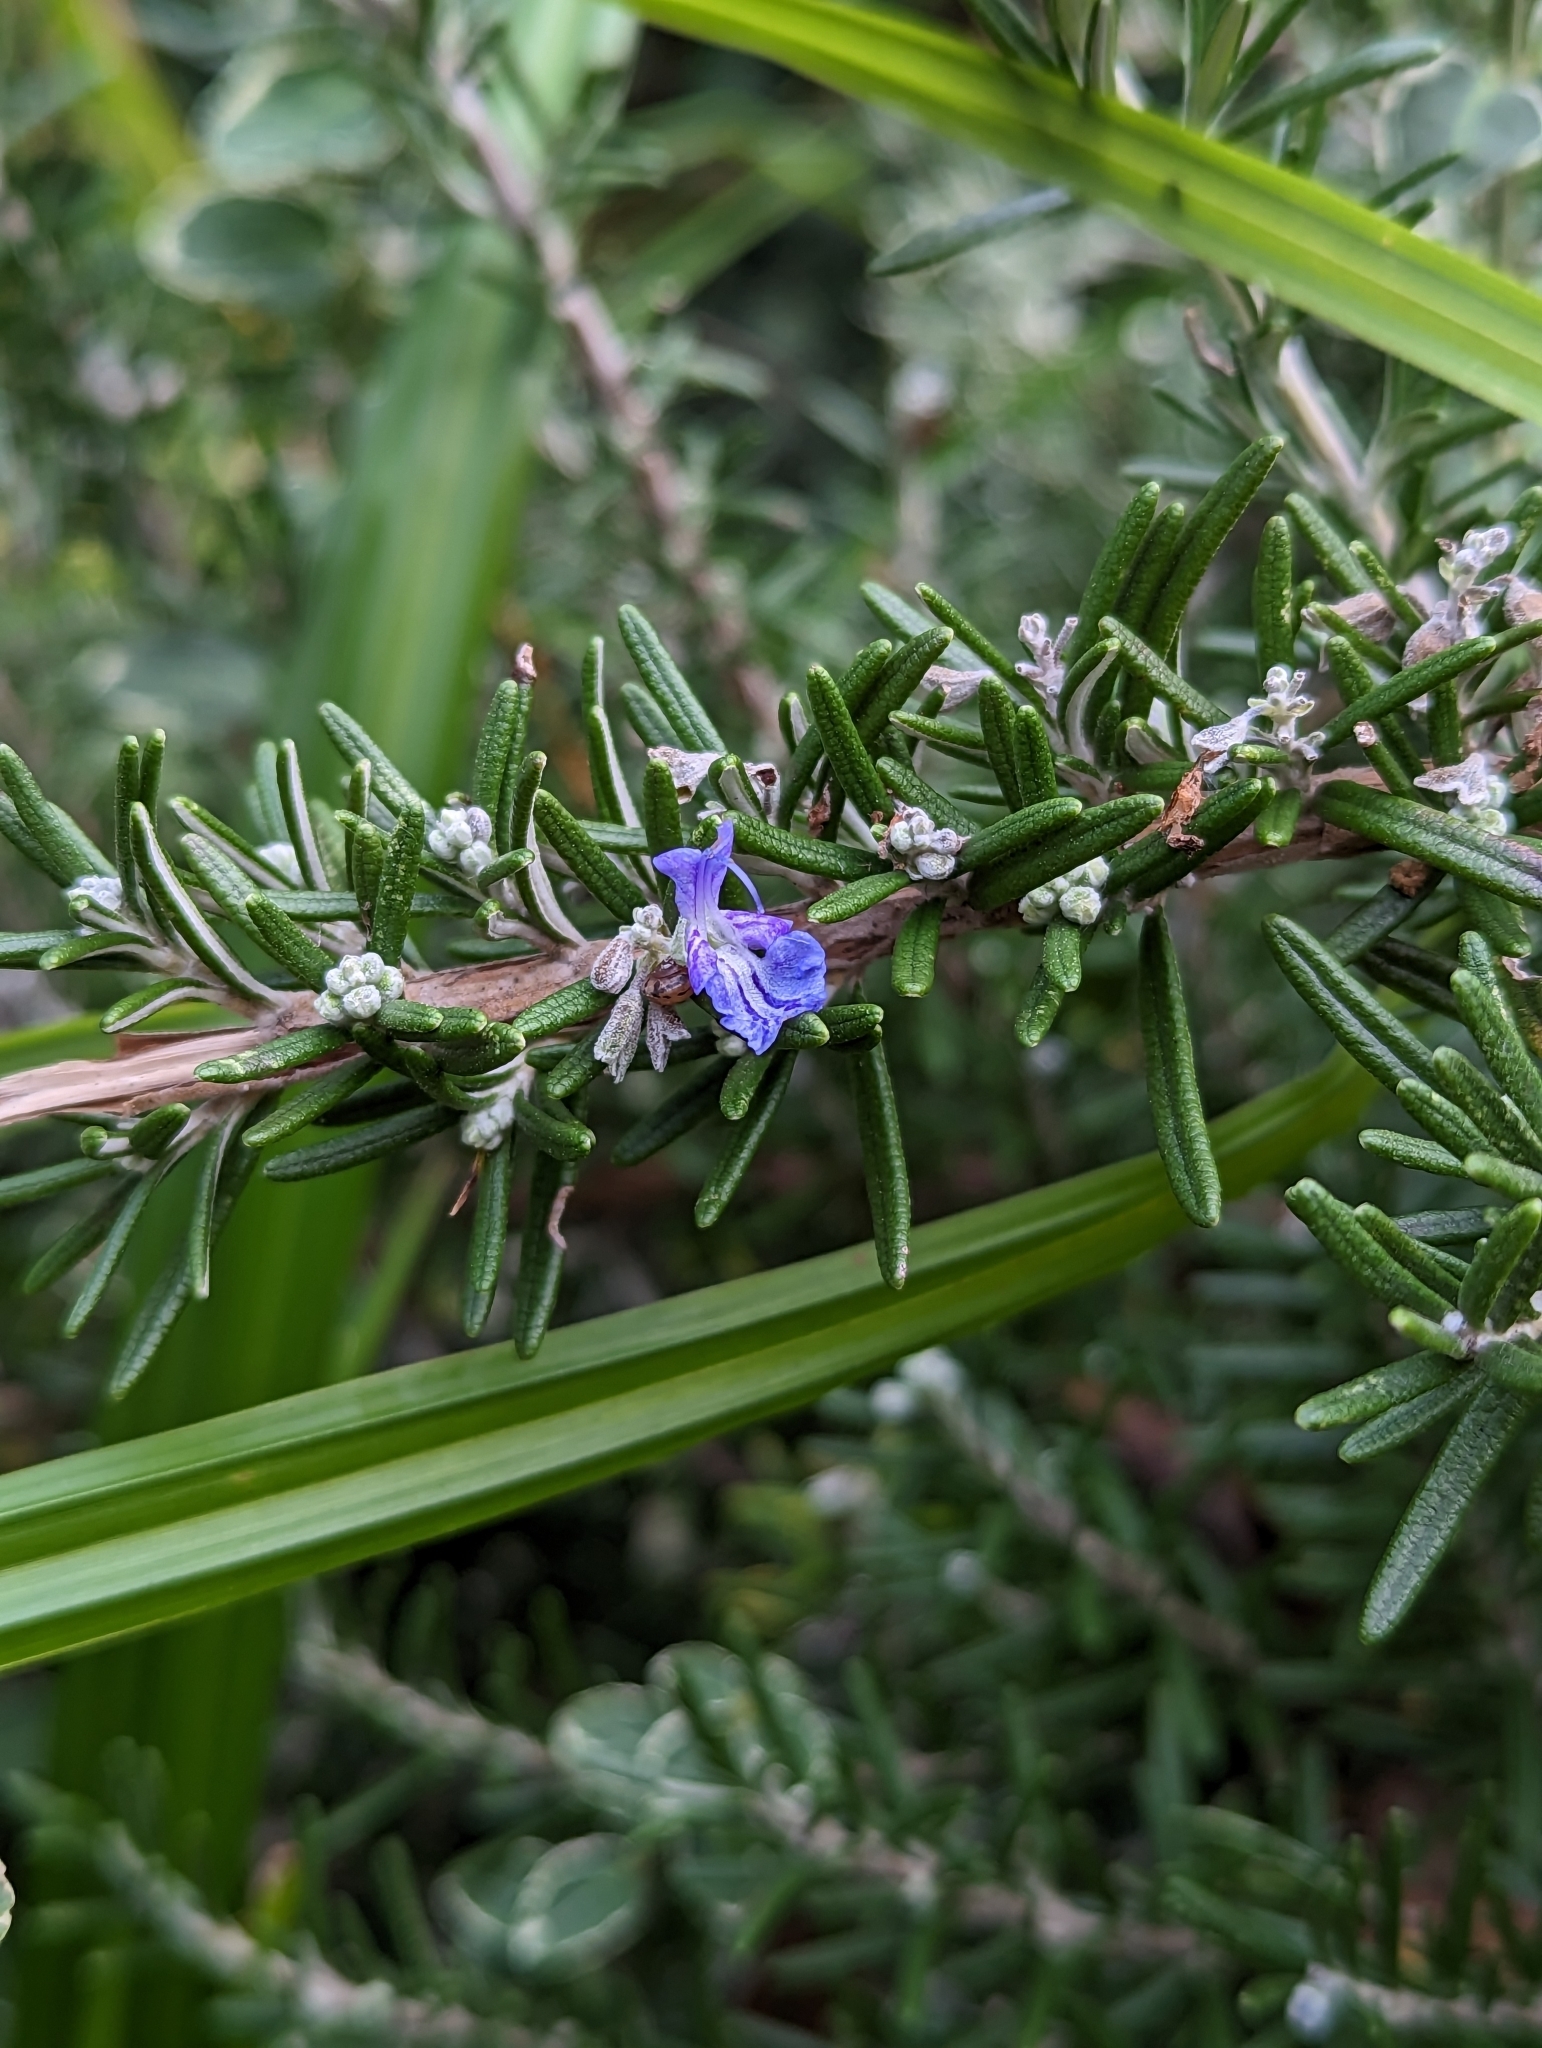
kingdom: Plantae
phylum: Tracheophyta
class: Magnoliopsida
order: Lamiales
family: Lamiaceae
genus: Salvia
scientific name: Salvia rosmarinus
